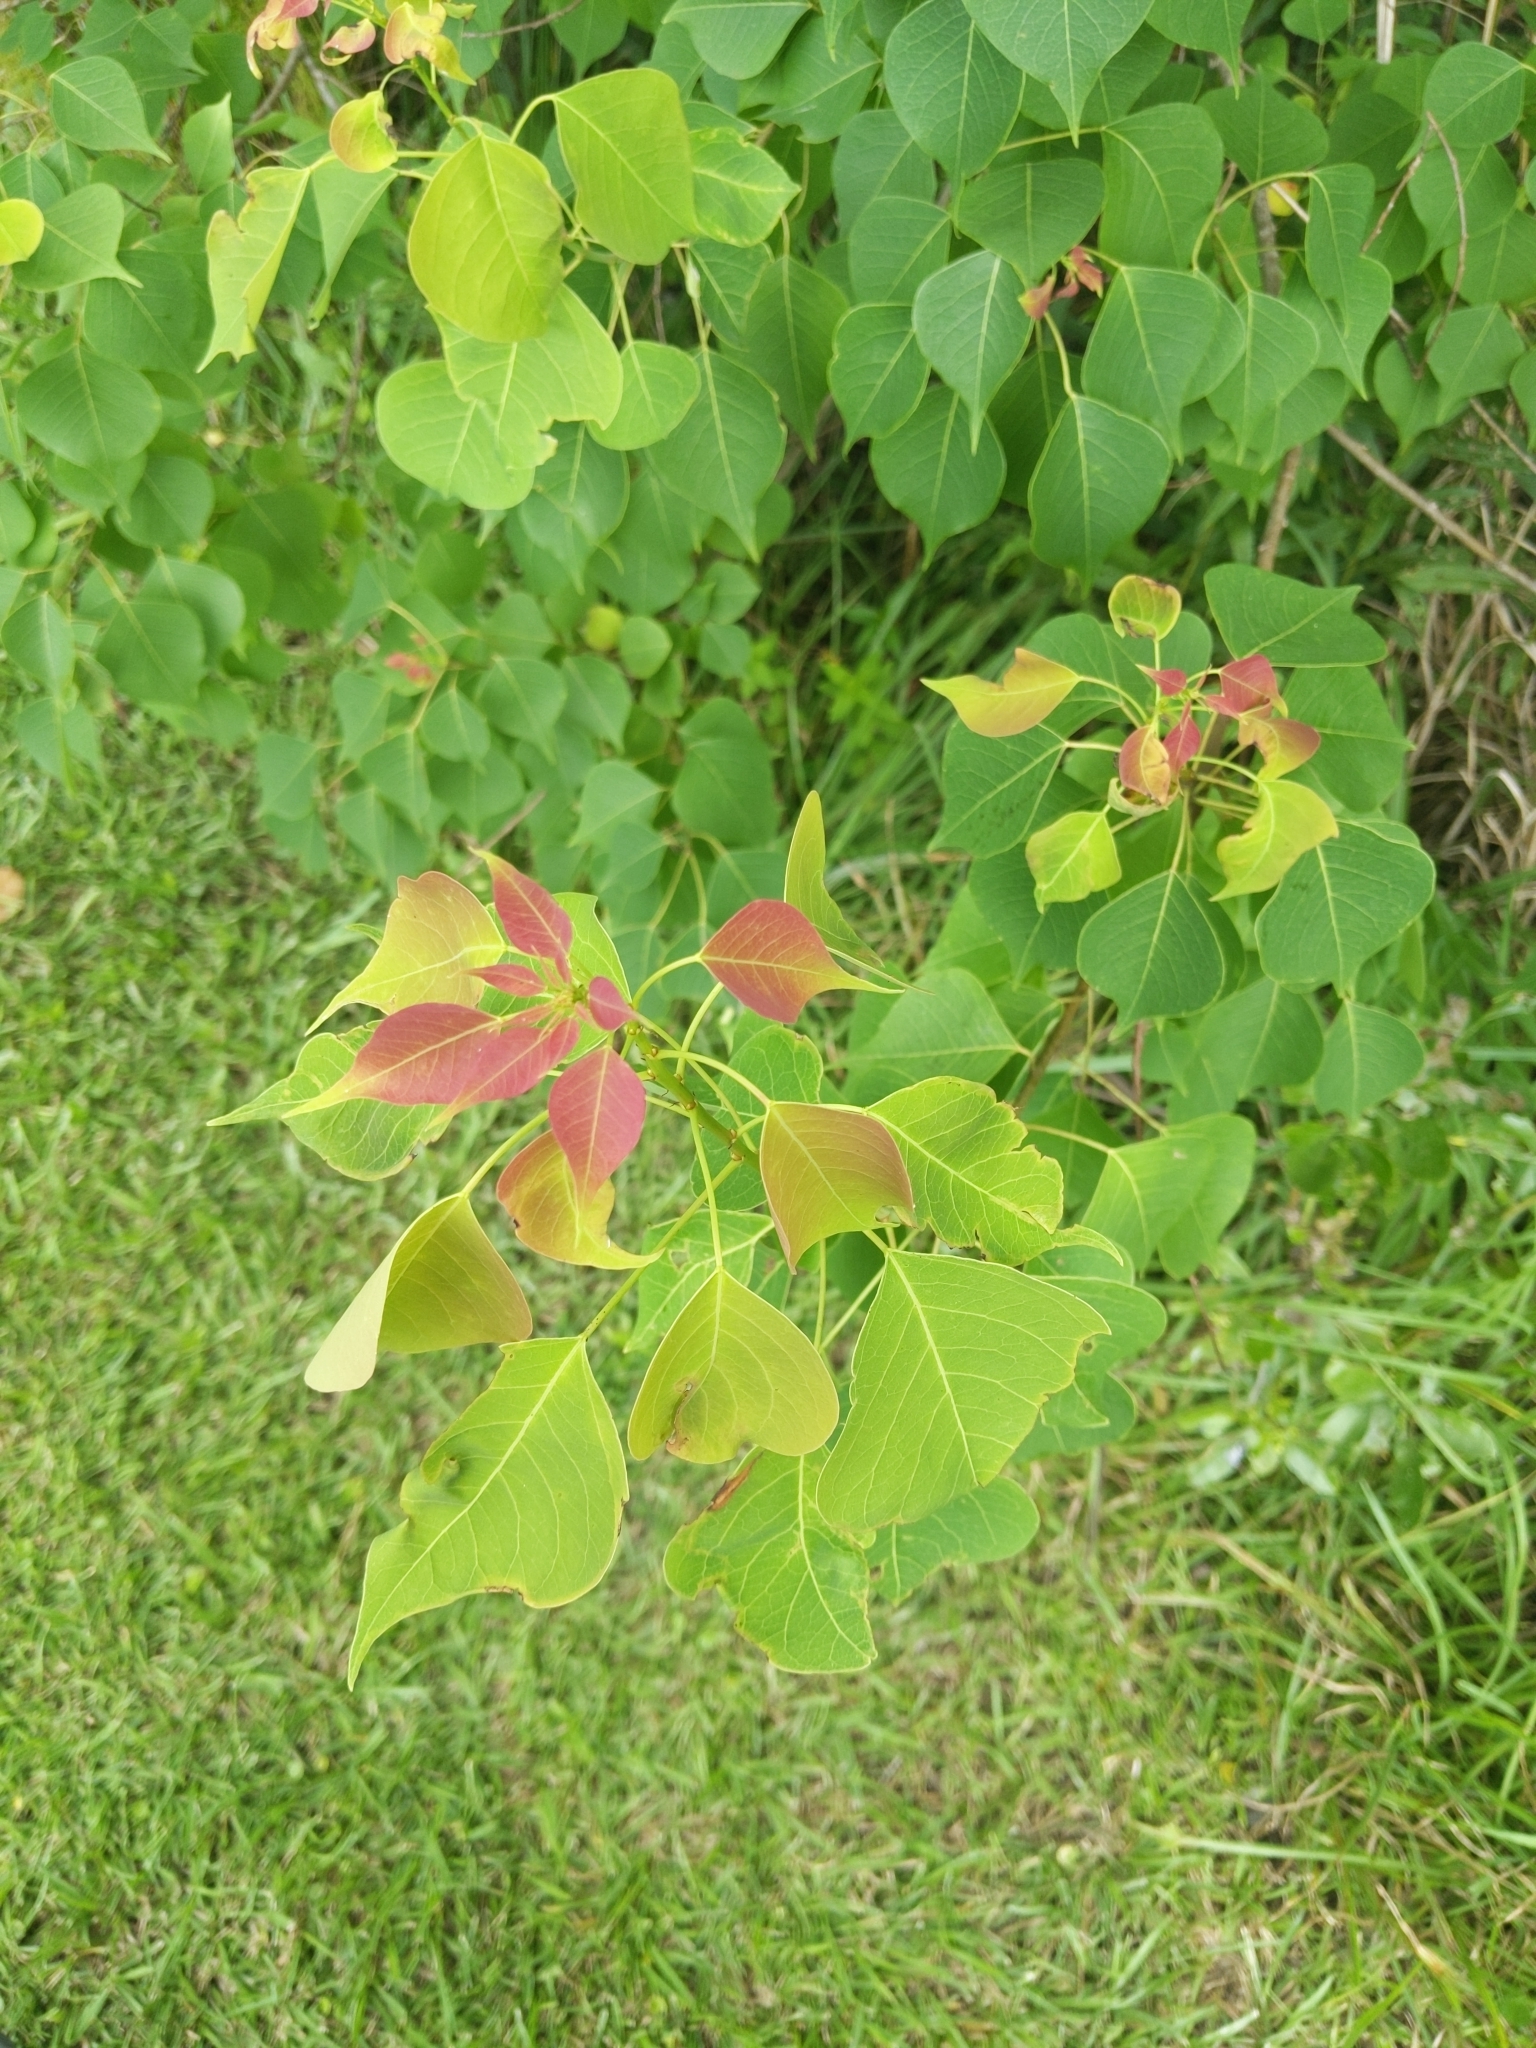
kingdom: Plantae
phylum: Tracheophyta
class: Magnoliopsida
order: Malpighiales
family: Euphorbiaceae
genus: Triadica
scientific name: Triadica sebifera
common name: Chinese tallow
